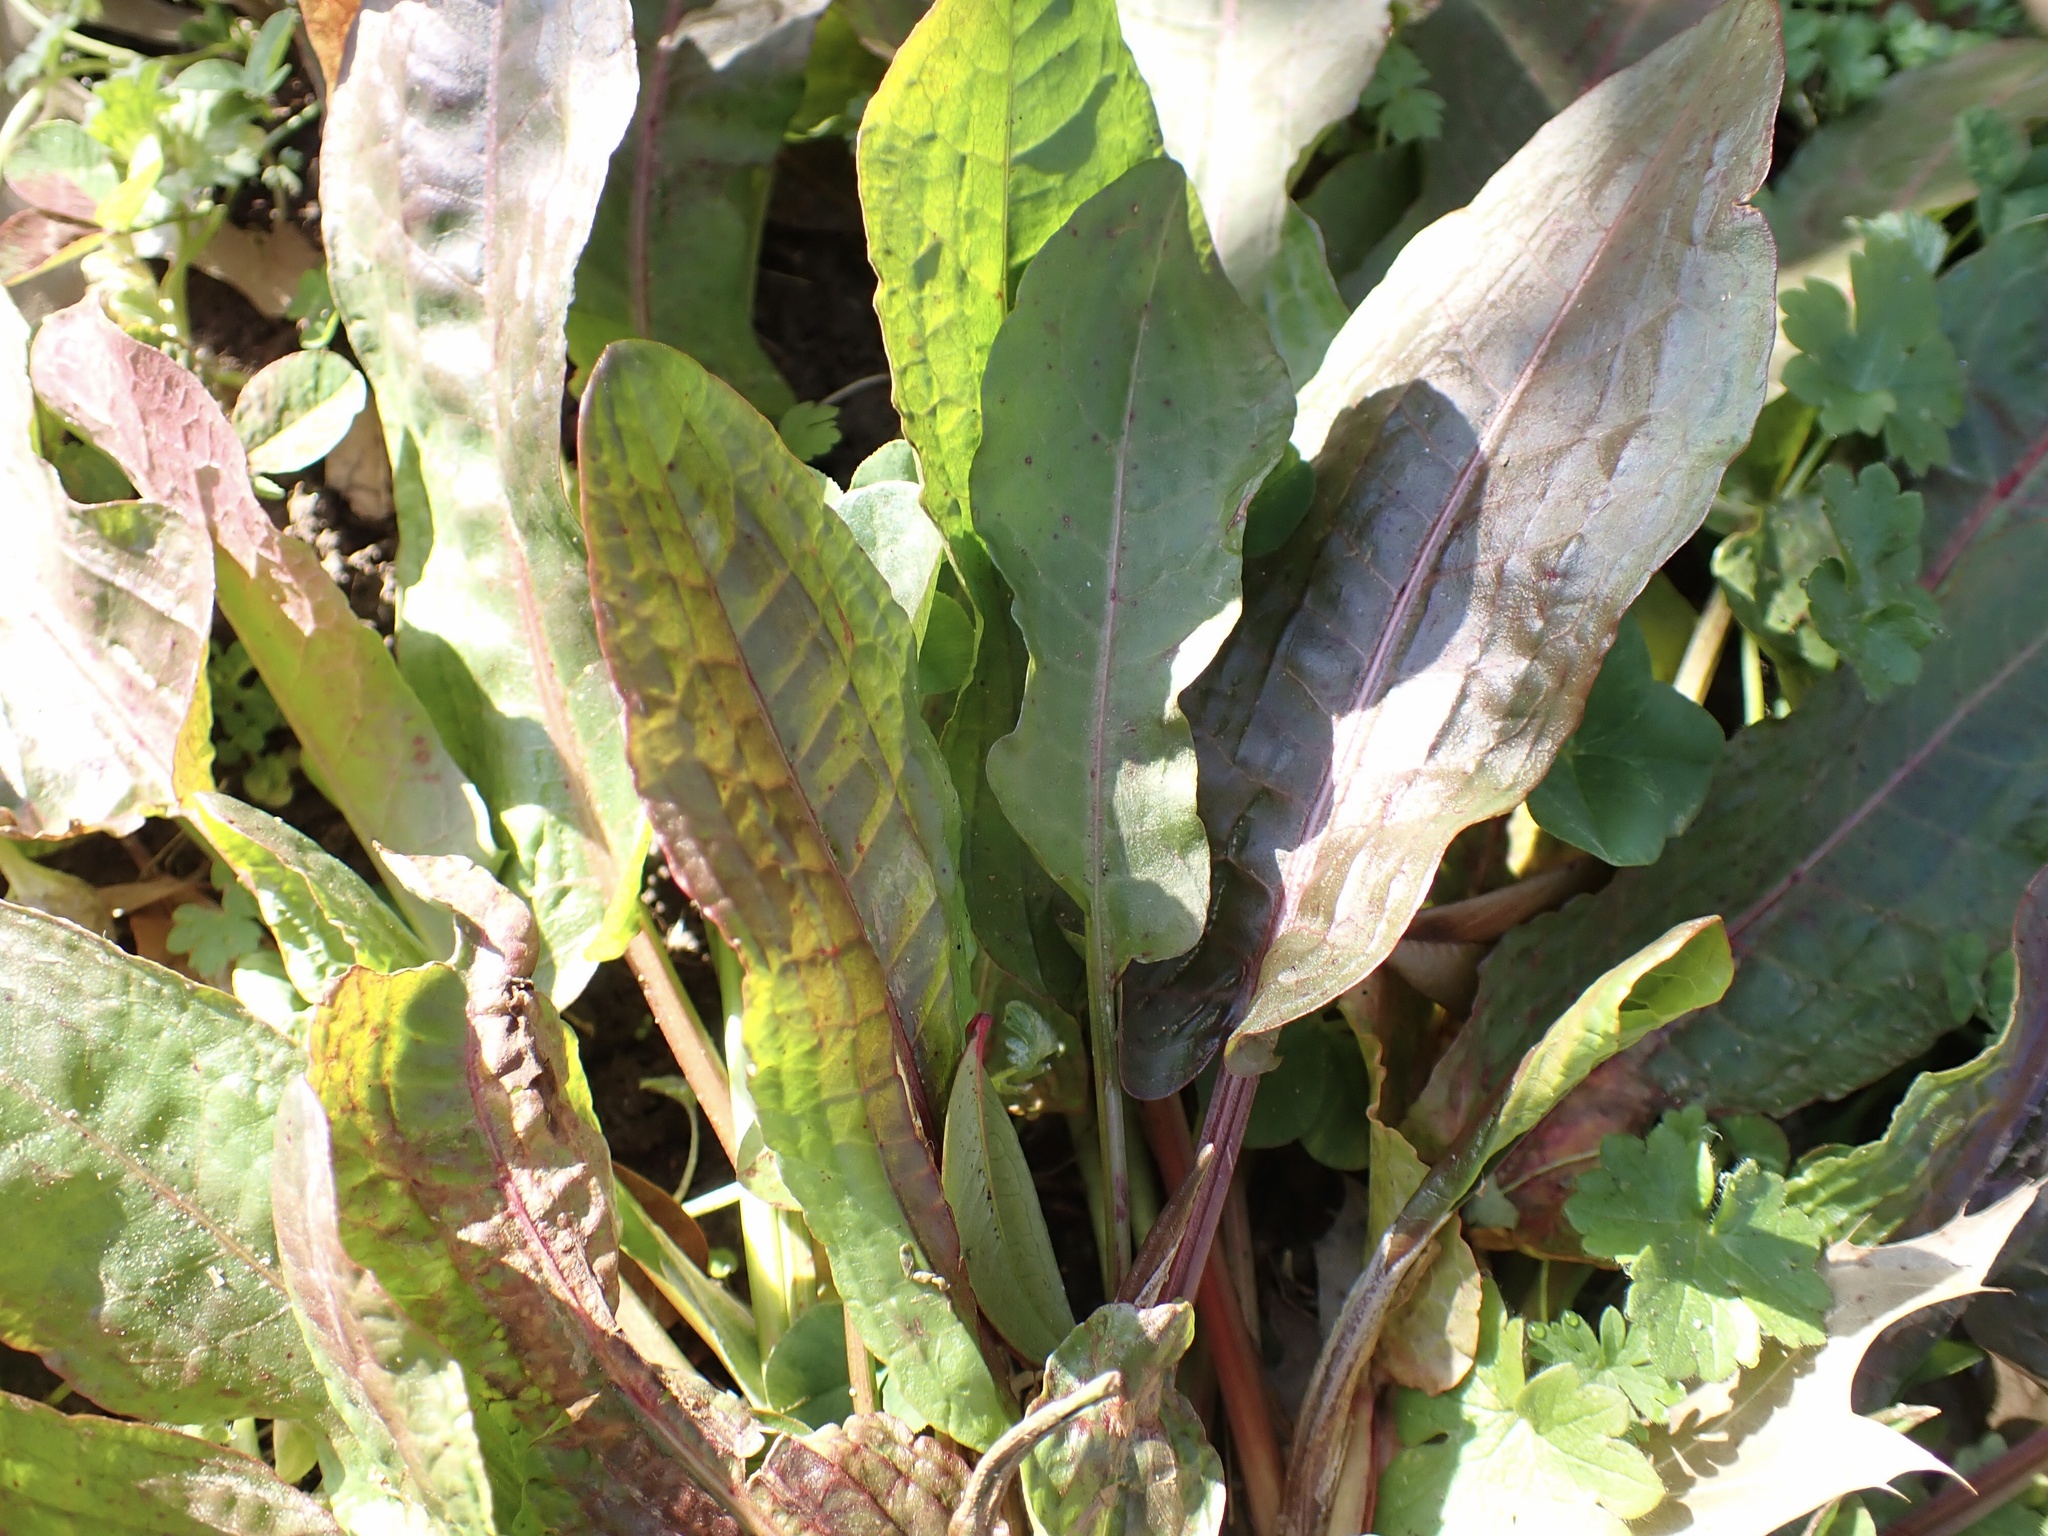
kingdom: Plantae
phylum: Tracheophyta
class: Magnoliopsida
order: Caryophyllales
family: Polygonaceae
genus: Rumex
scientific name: Rumex crispus
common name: Curled dock
